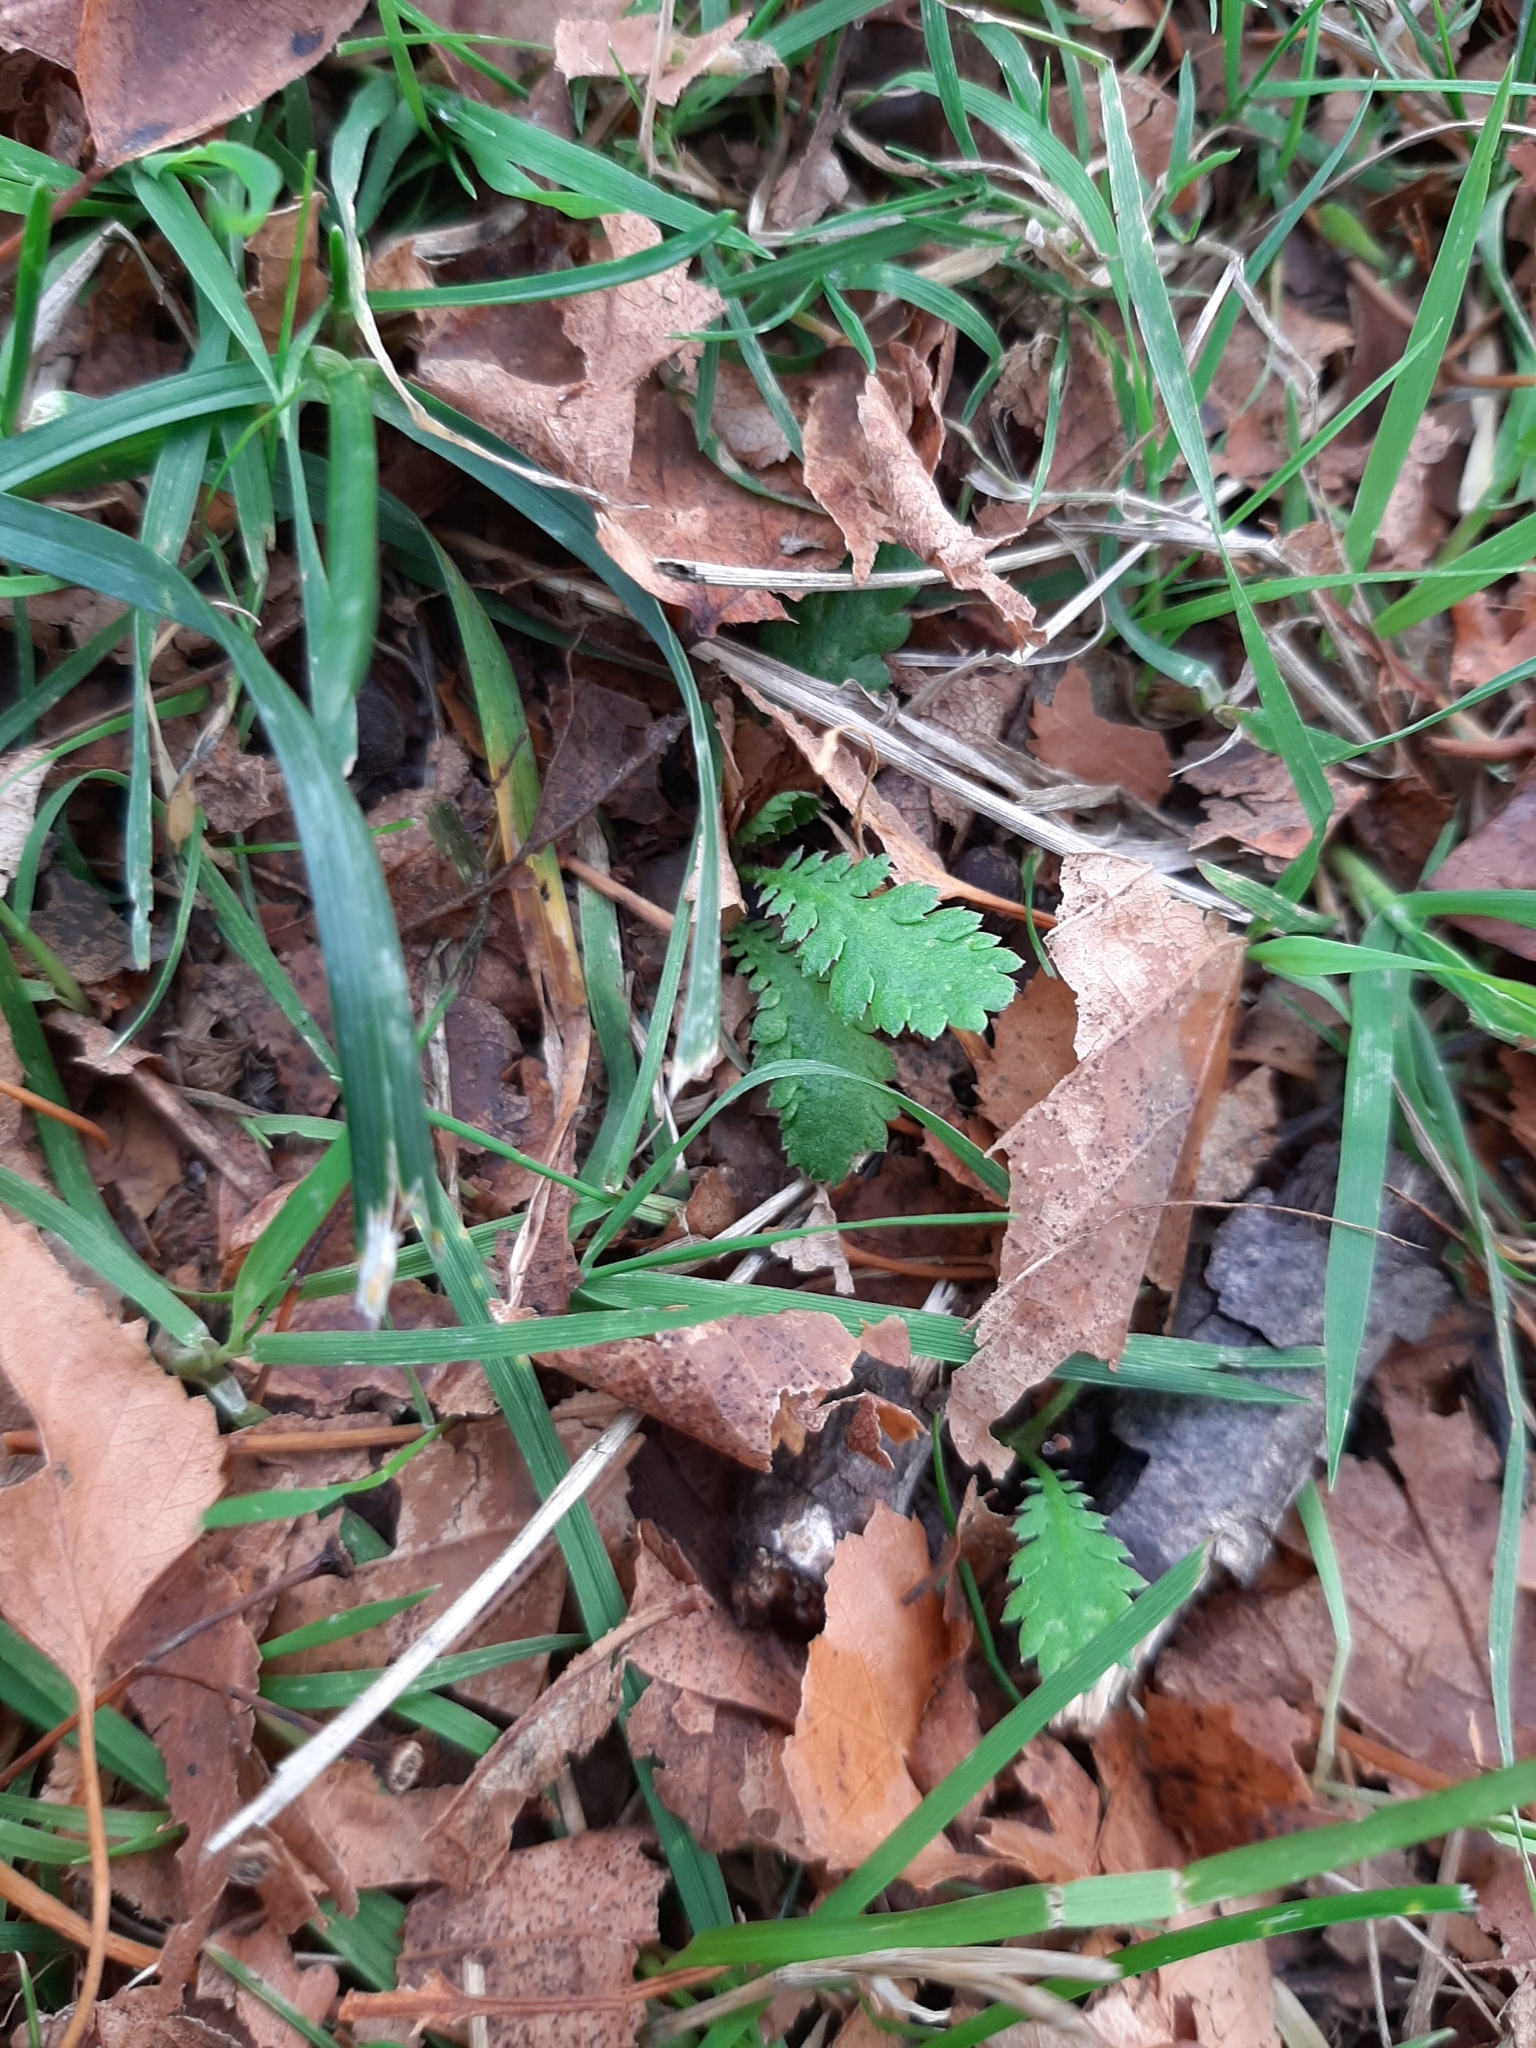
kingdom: Plantae
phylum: Tracheophyta
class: Magnoliopsida
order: Asterales
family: Asteraceae
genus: Leptinella
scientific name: Leptinella dioica
